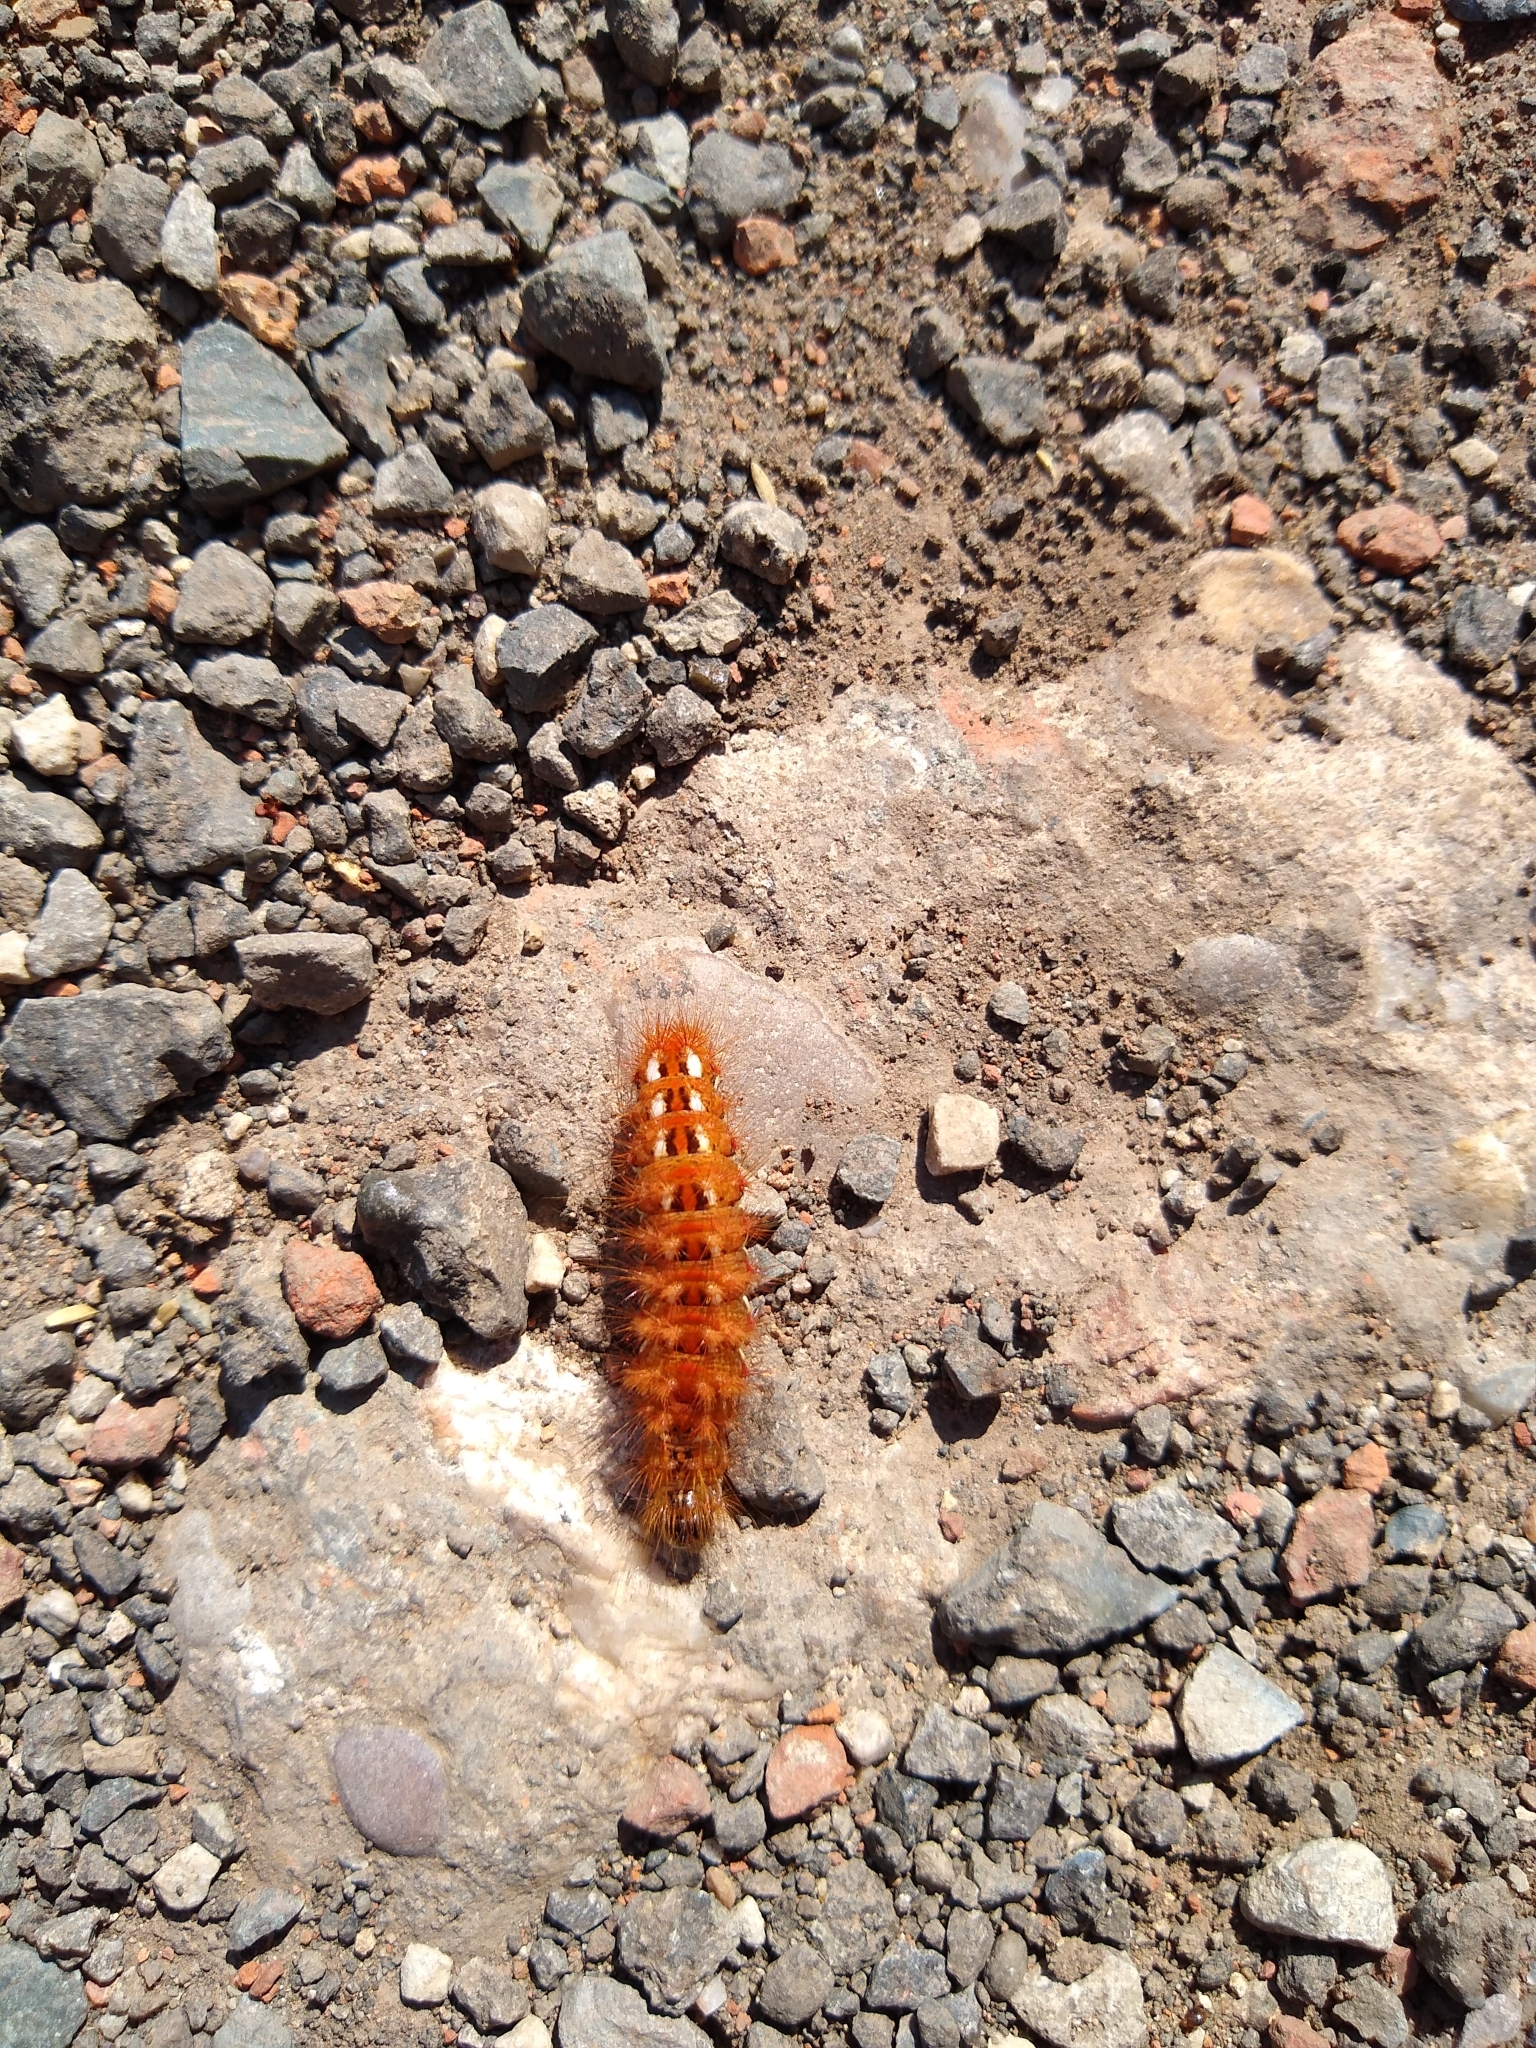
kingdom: Animalia
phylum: Arthropoda
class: Insecta
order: Lepidoptera
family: Noctuidae
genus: Acronicta
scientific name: Acronicta rumicis
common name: Knot grass
